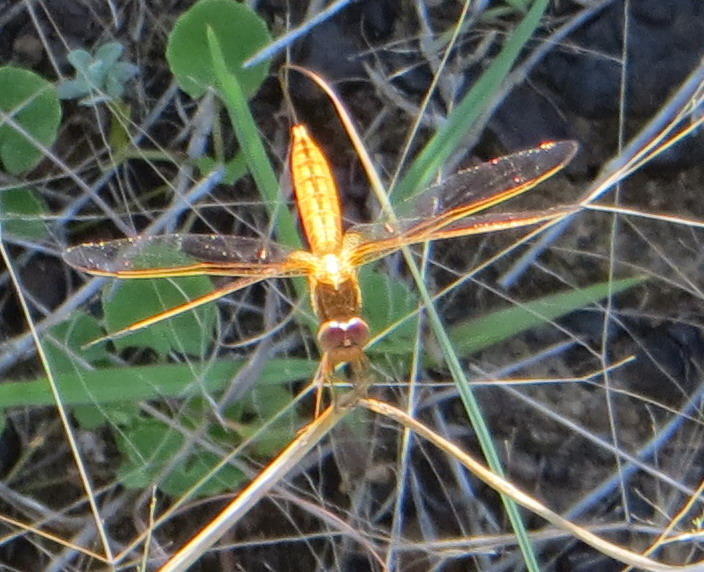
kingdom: Animalia
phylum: Arthropoda
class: Insecta
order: Odonata
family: Libellulidae
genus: Crocothemis
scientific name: Crocothemis erythraea
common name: Scarlet dragonfly
